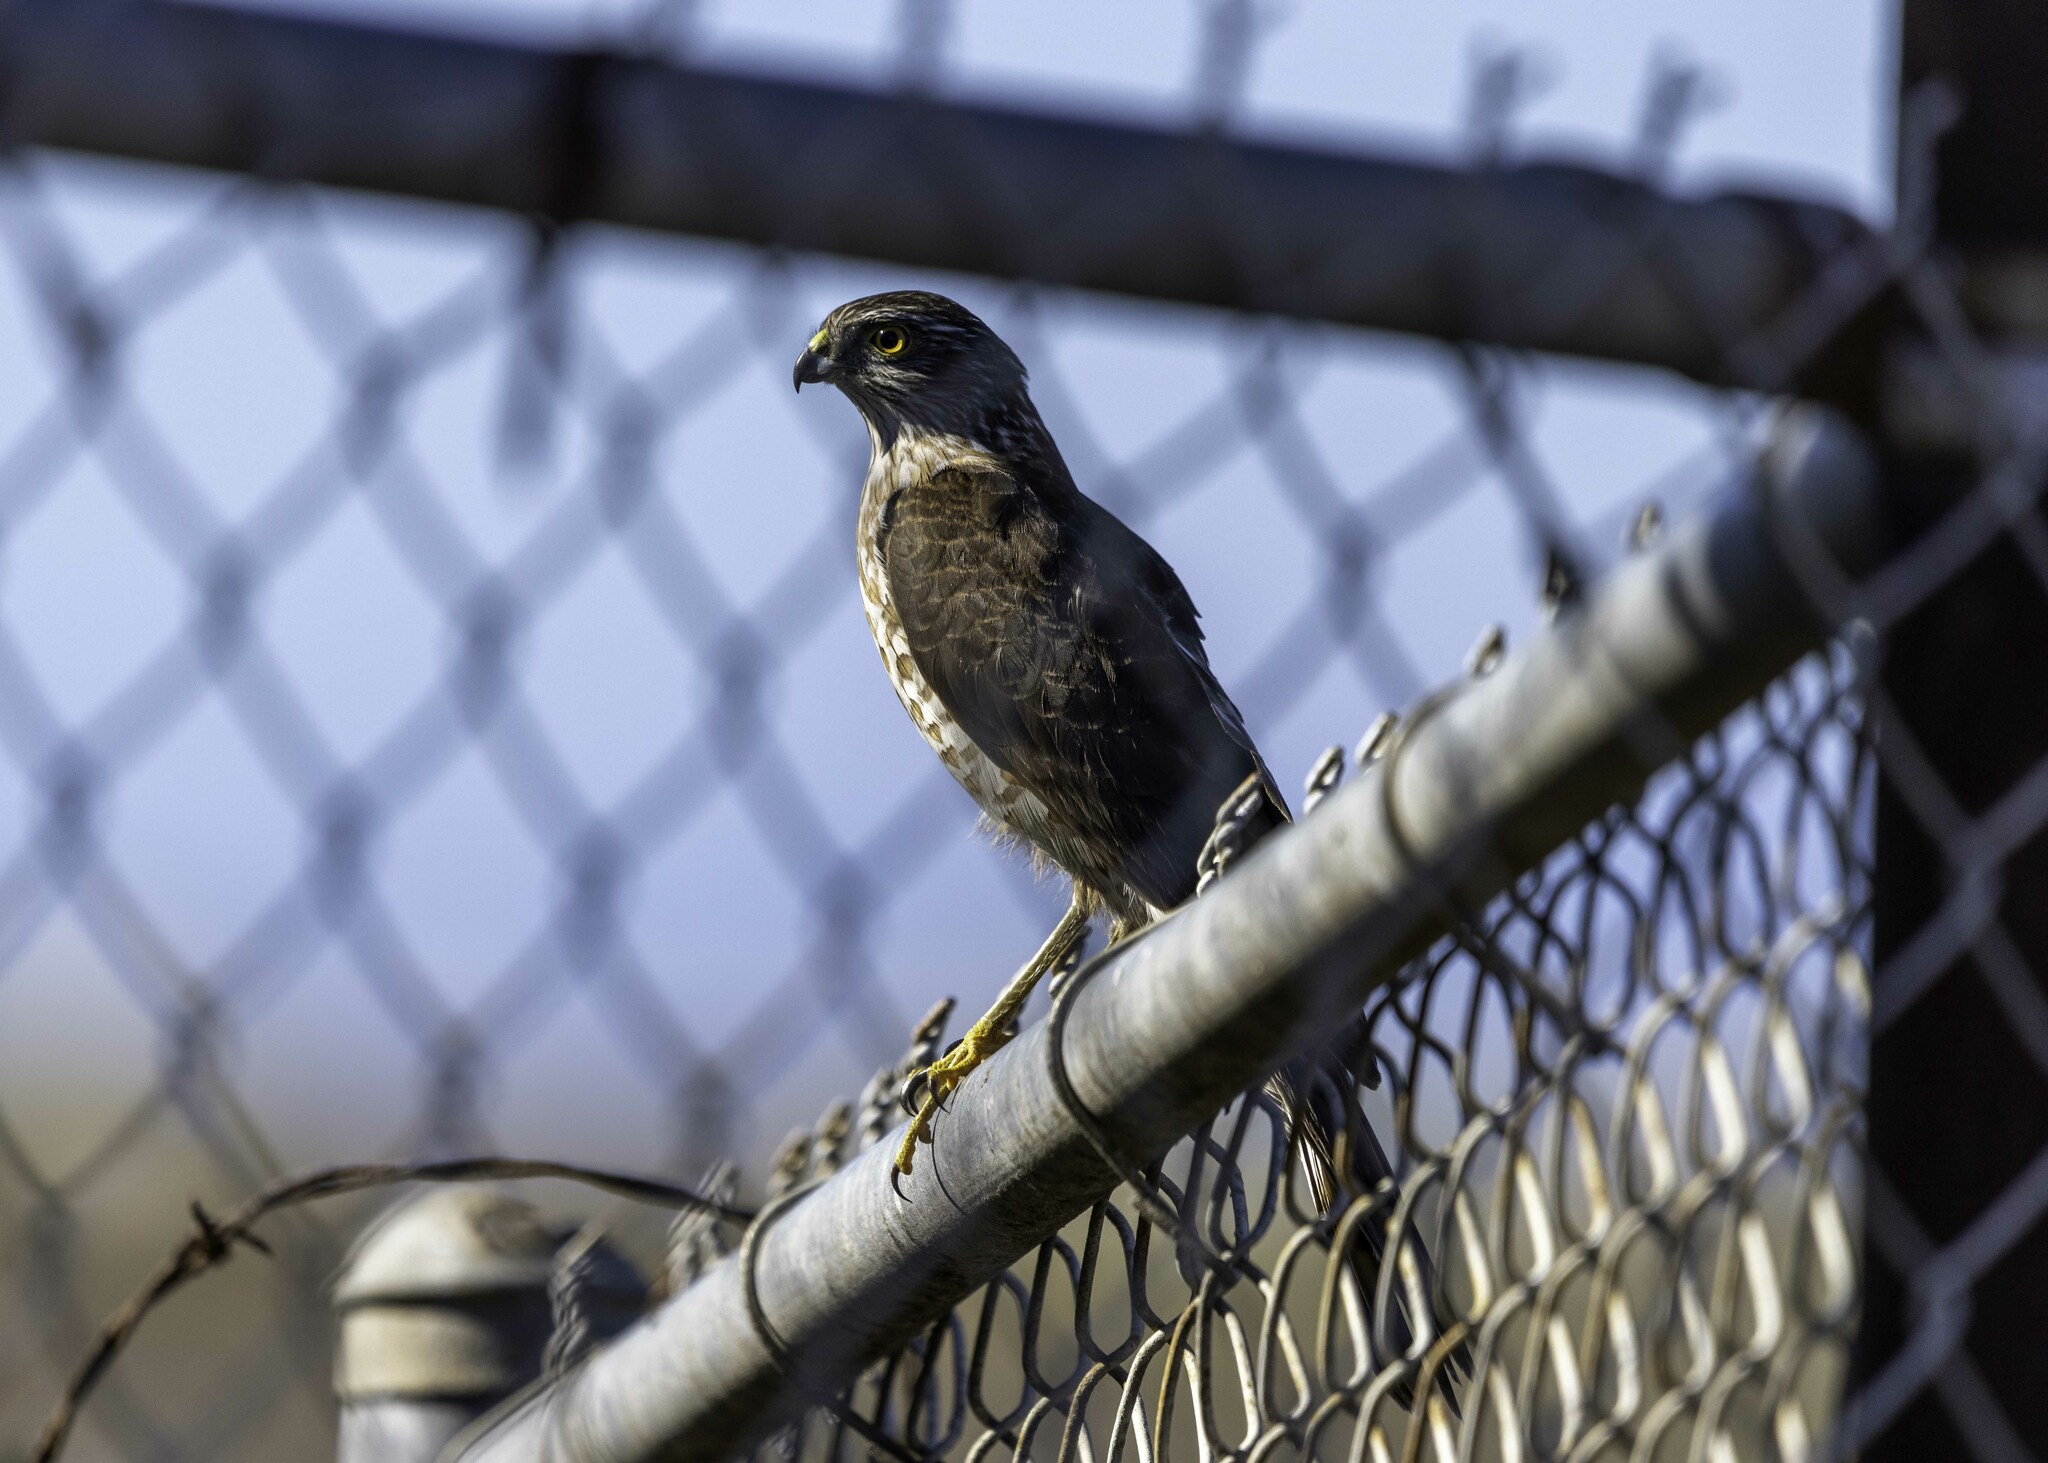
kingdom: Animalia
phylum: Chordata
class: Aves
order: Accipitriformes
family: Accipitridae
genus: Accipiter
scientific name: Accipiter striatus
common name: Sharp-shinned hawk
